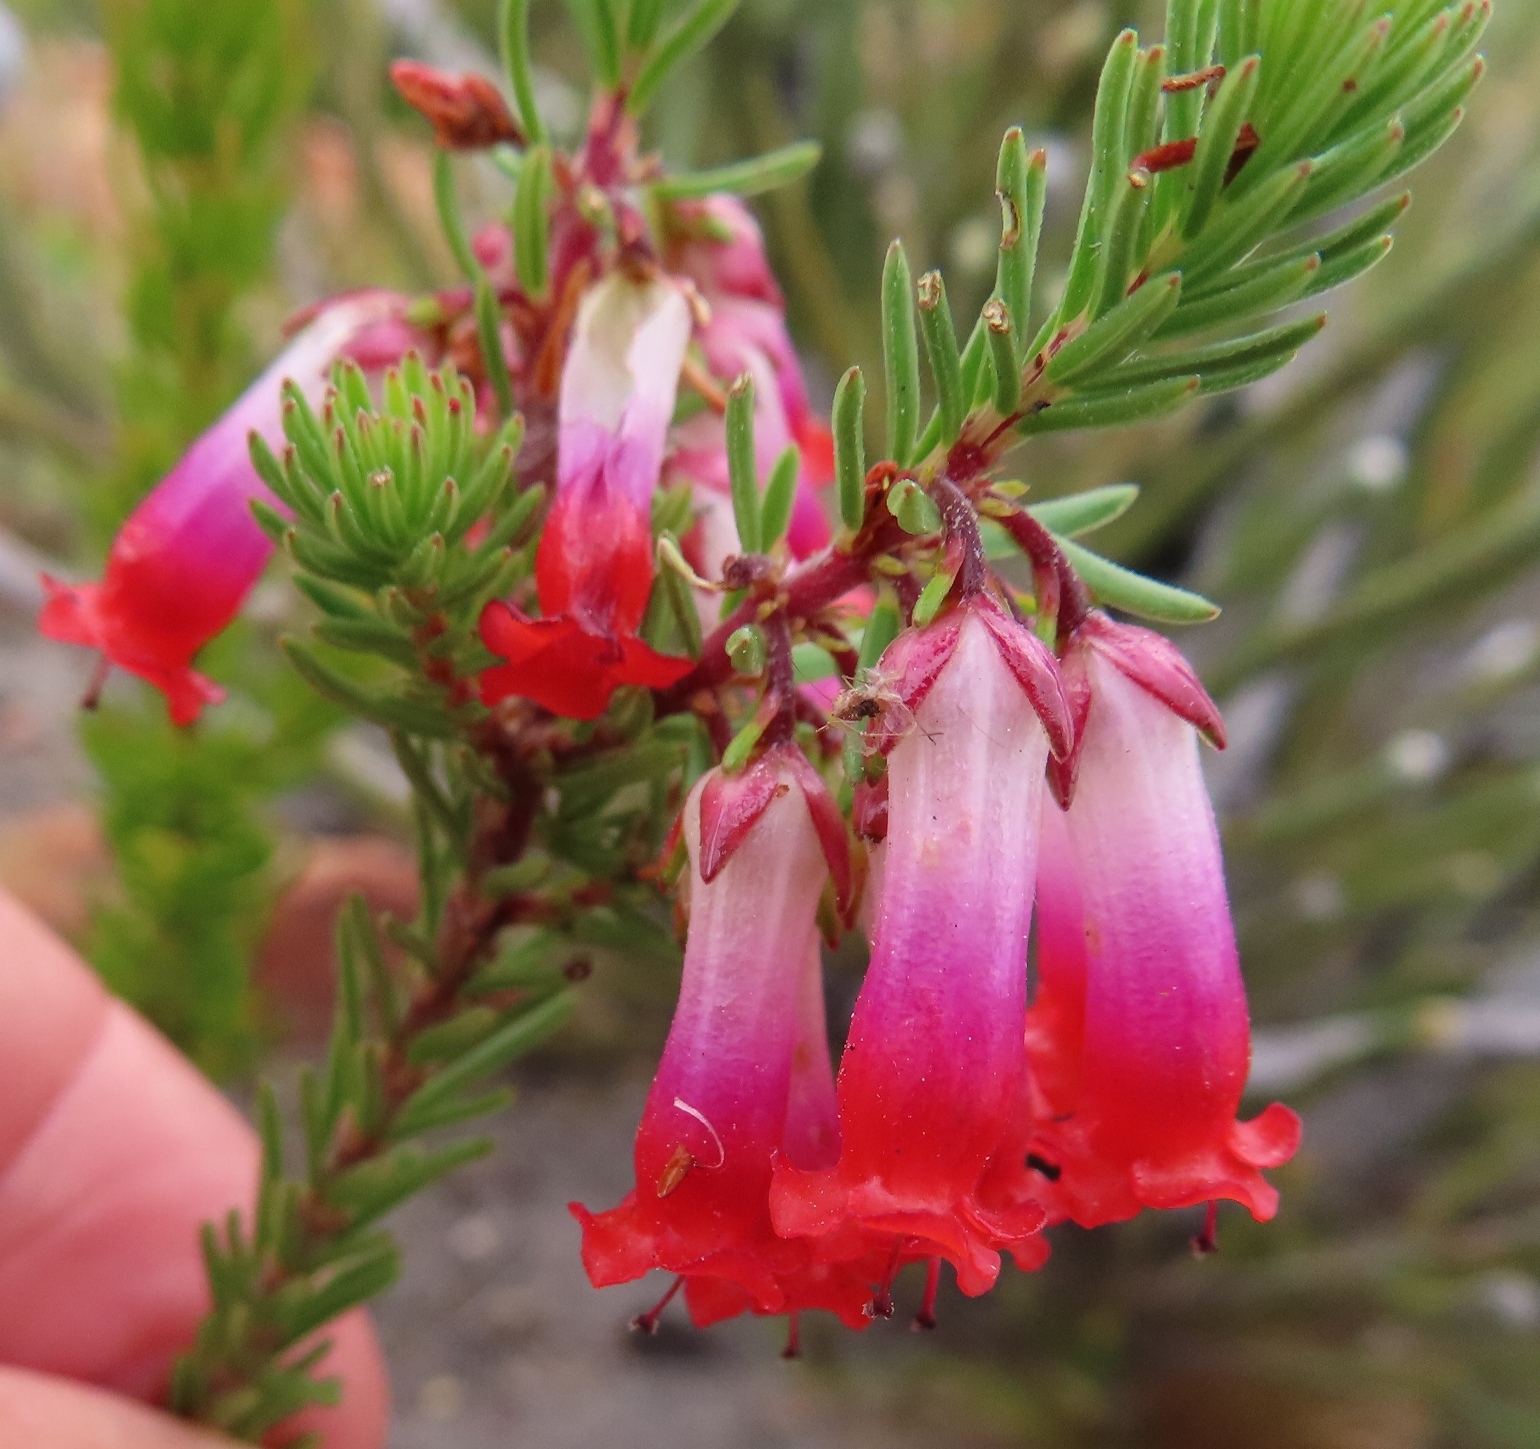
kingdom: Plantae
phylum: Tracheophyta
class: Magnoliopsida
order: Ericales
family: Ericaceae
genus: Erica
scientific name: Erica regia
